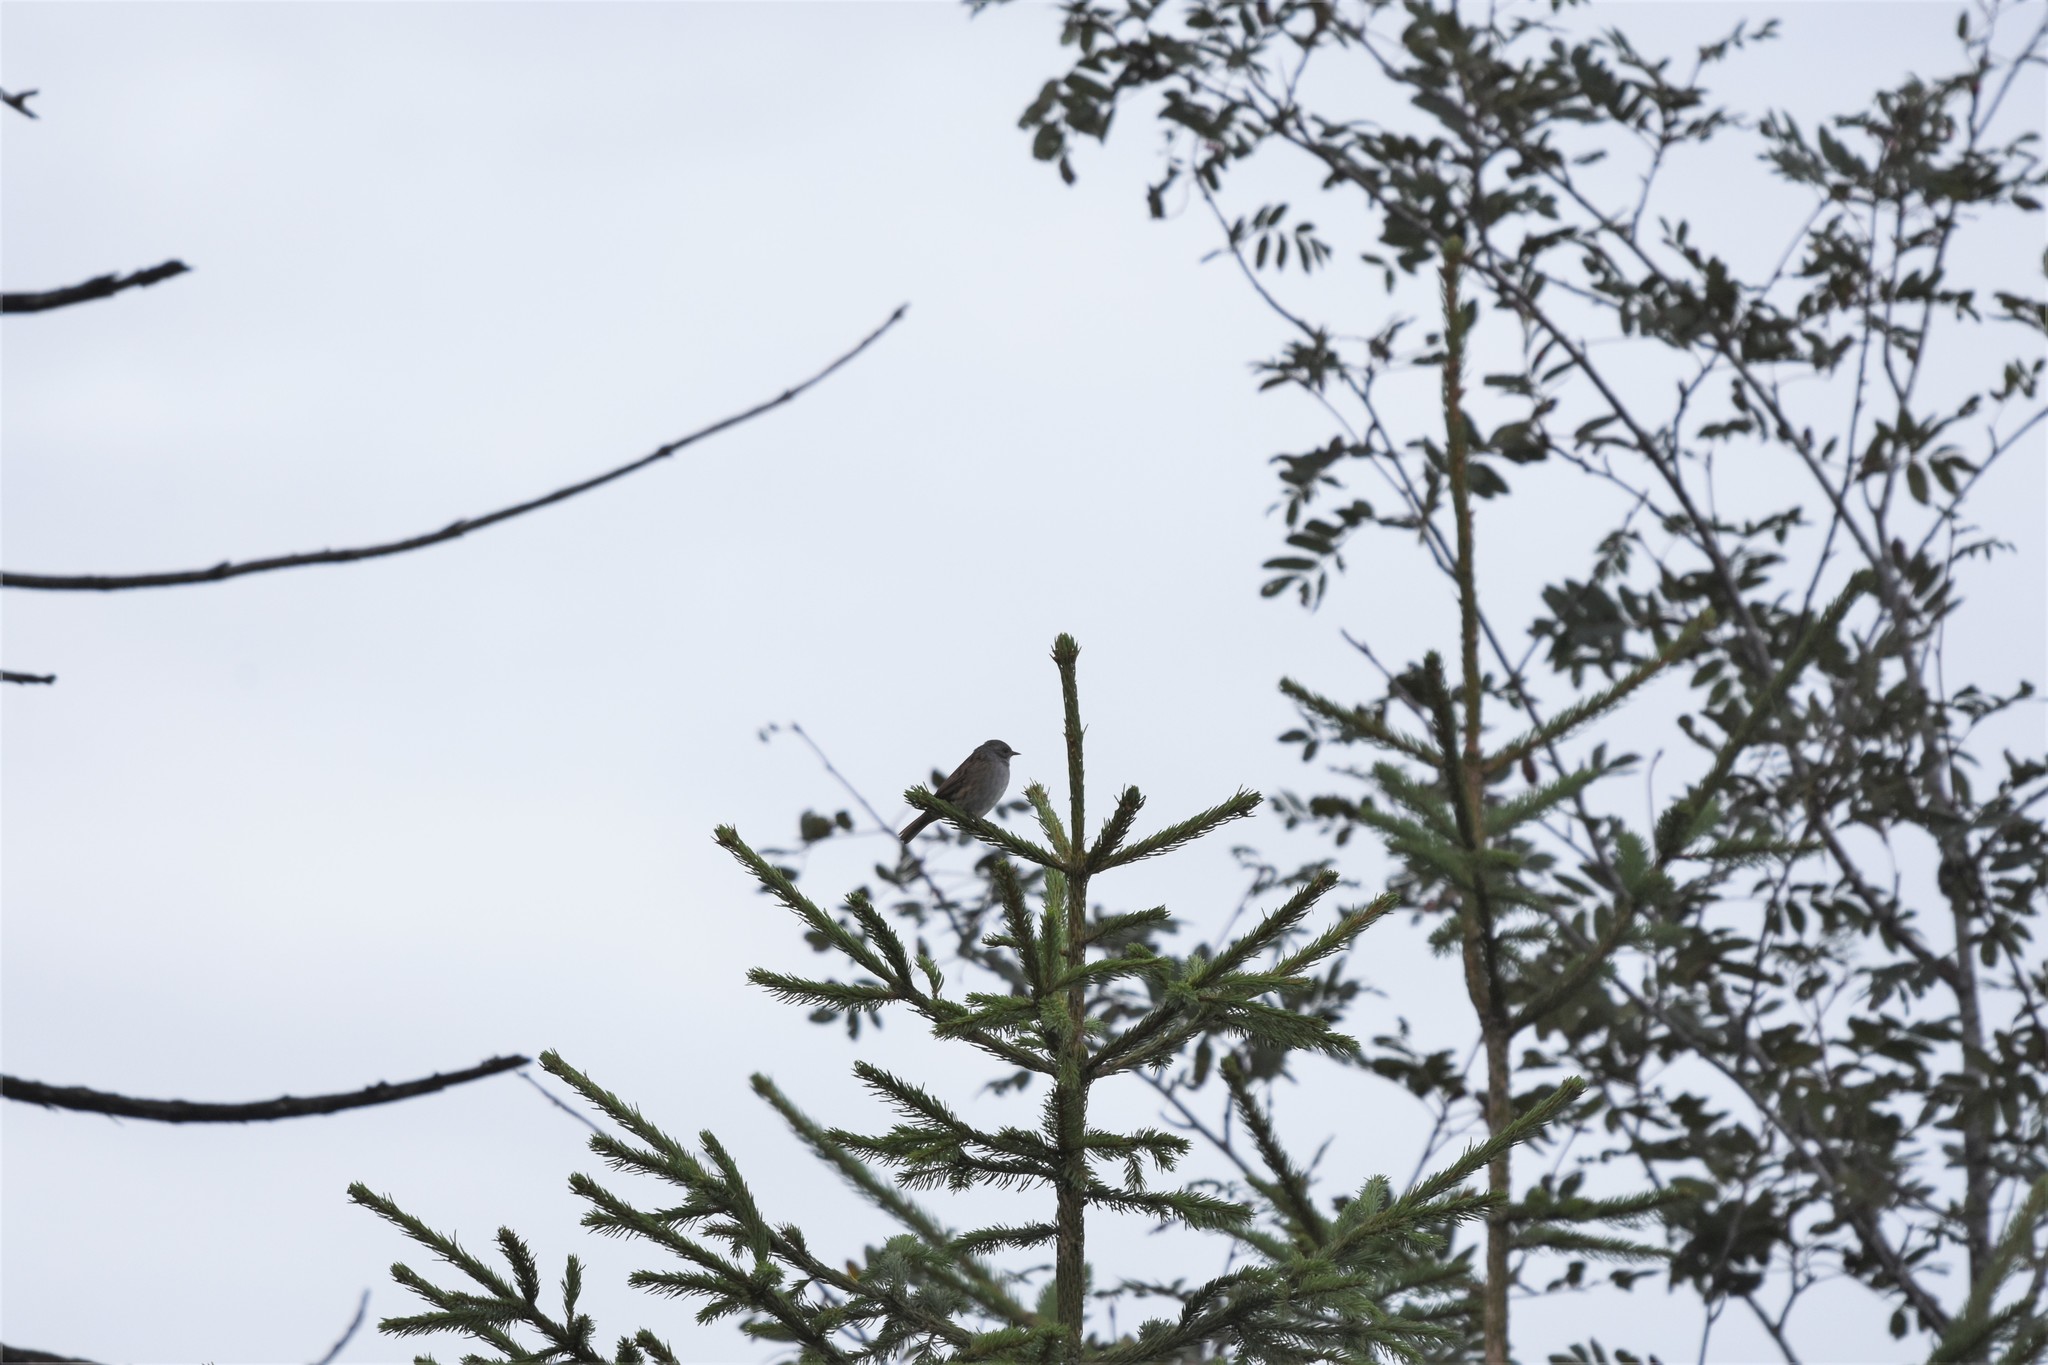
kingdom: Animalia
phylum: Chordata
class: Aves
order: Passeriformes
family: Prunellidae
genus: Prunella
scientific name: Prunella modularis
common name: Dunnock
